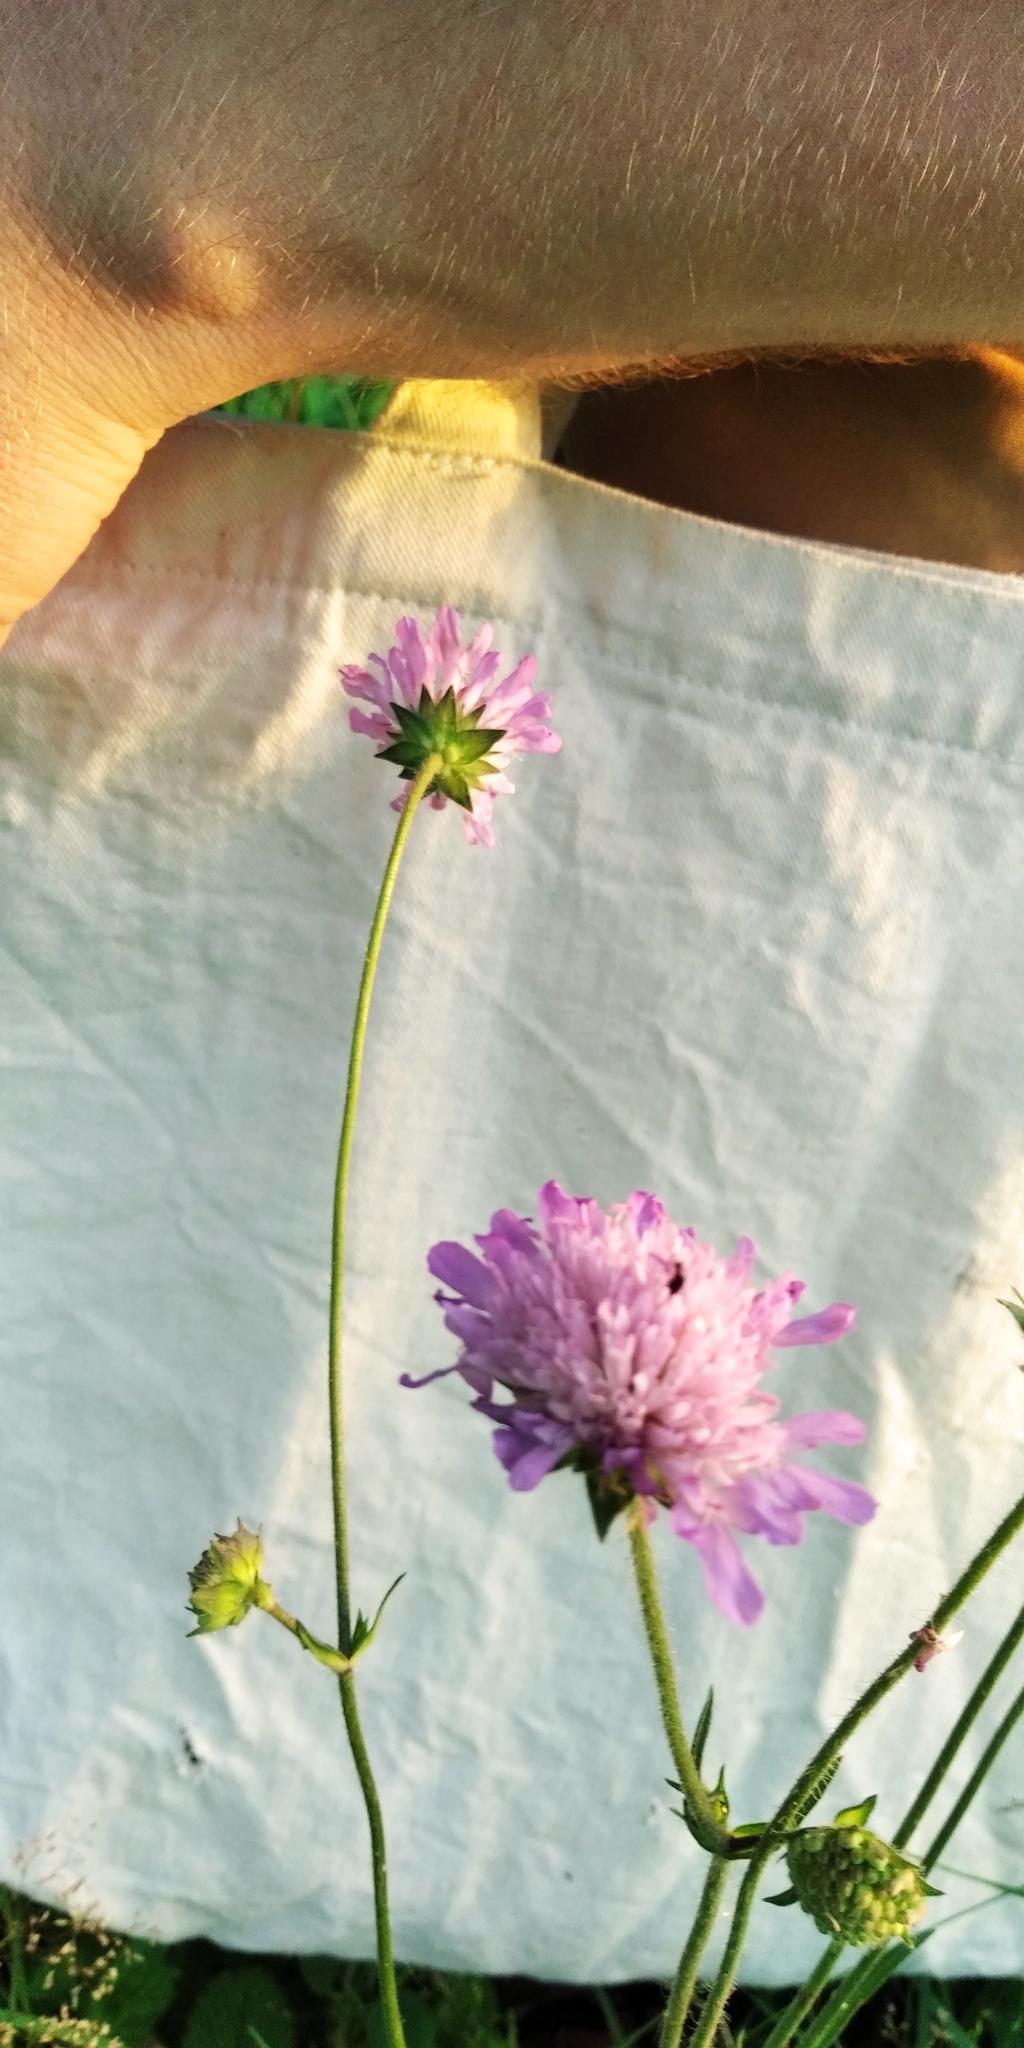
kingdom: Plantae
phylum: Tracheophyta
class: Magnoliopsida
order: Dipsacales
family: Caprifoliaceae
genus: Knautia
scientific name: Knautia arvensis
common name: Field scabiosa
